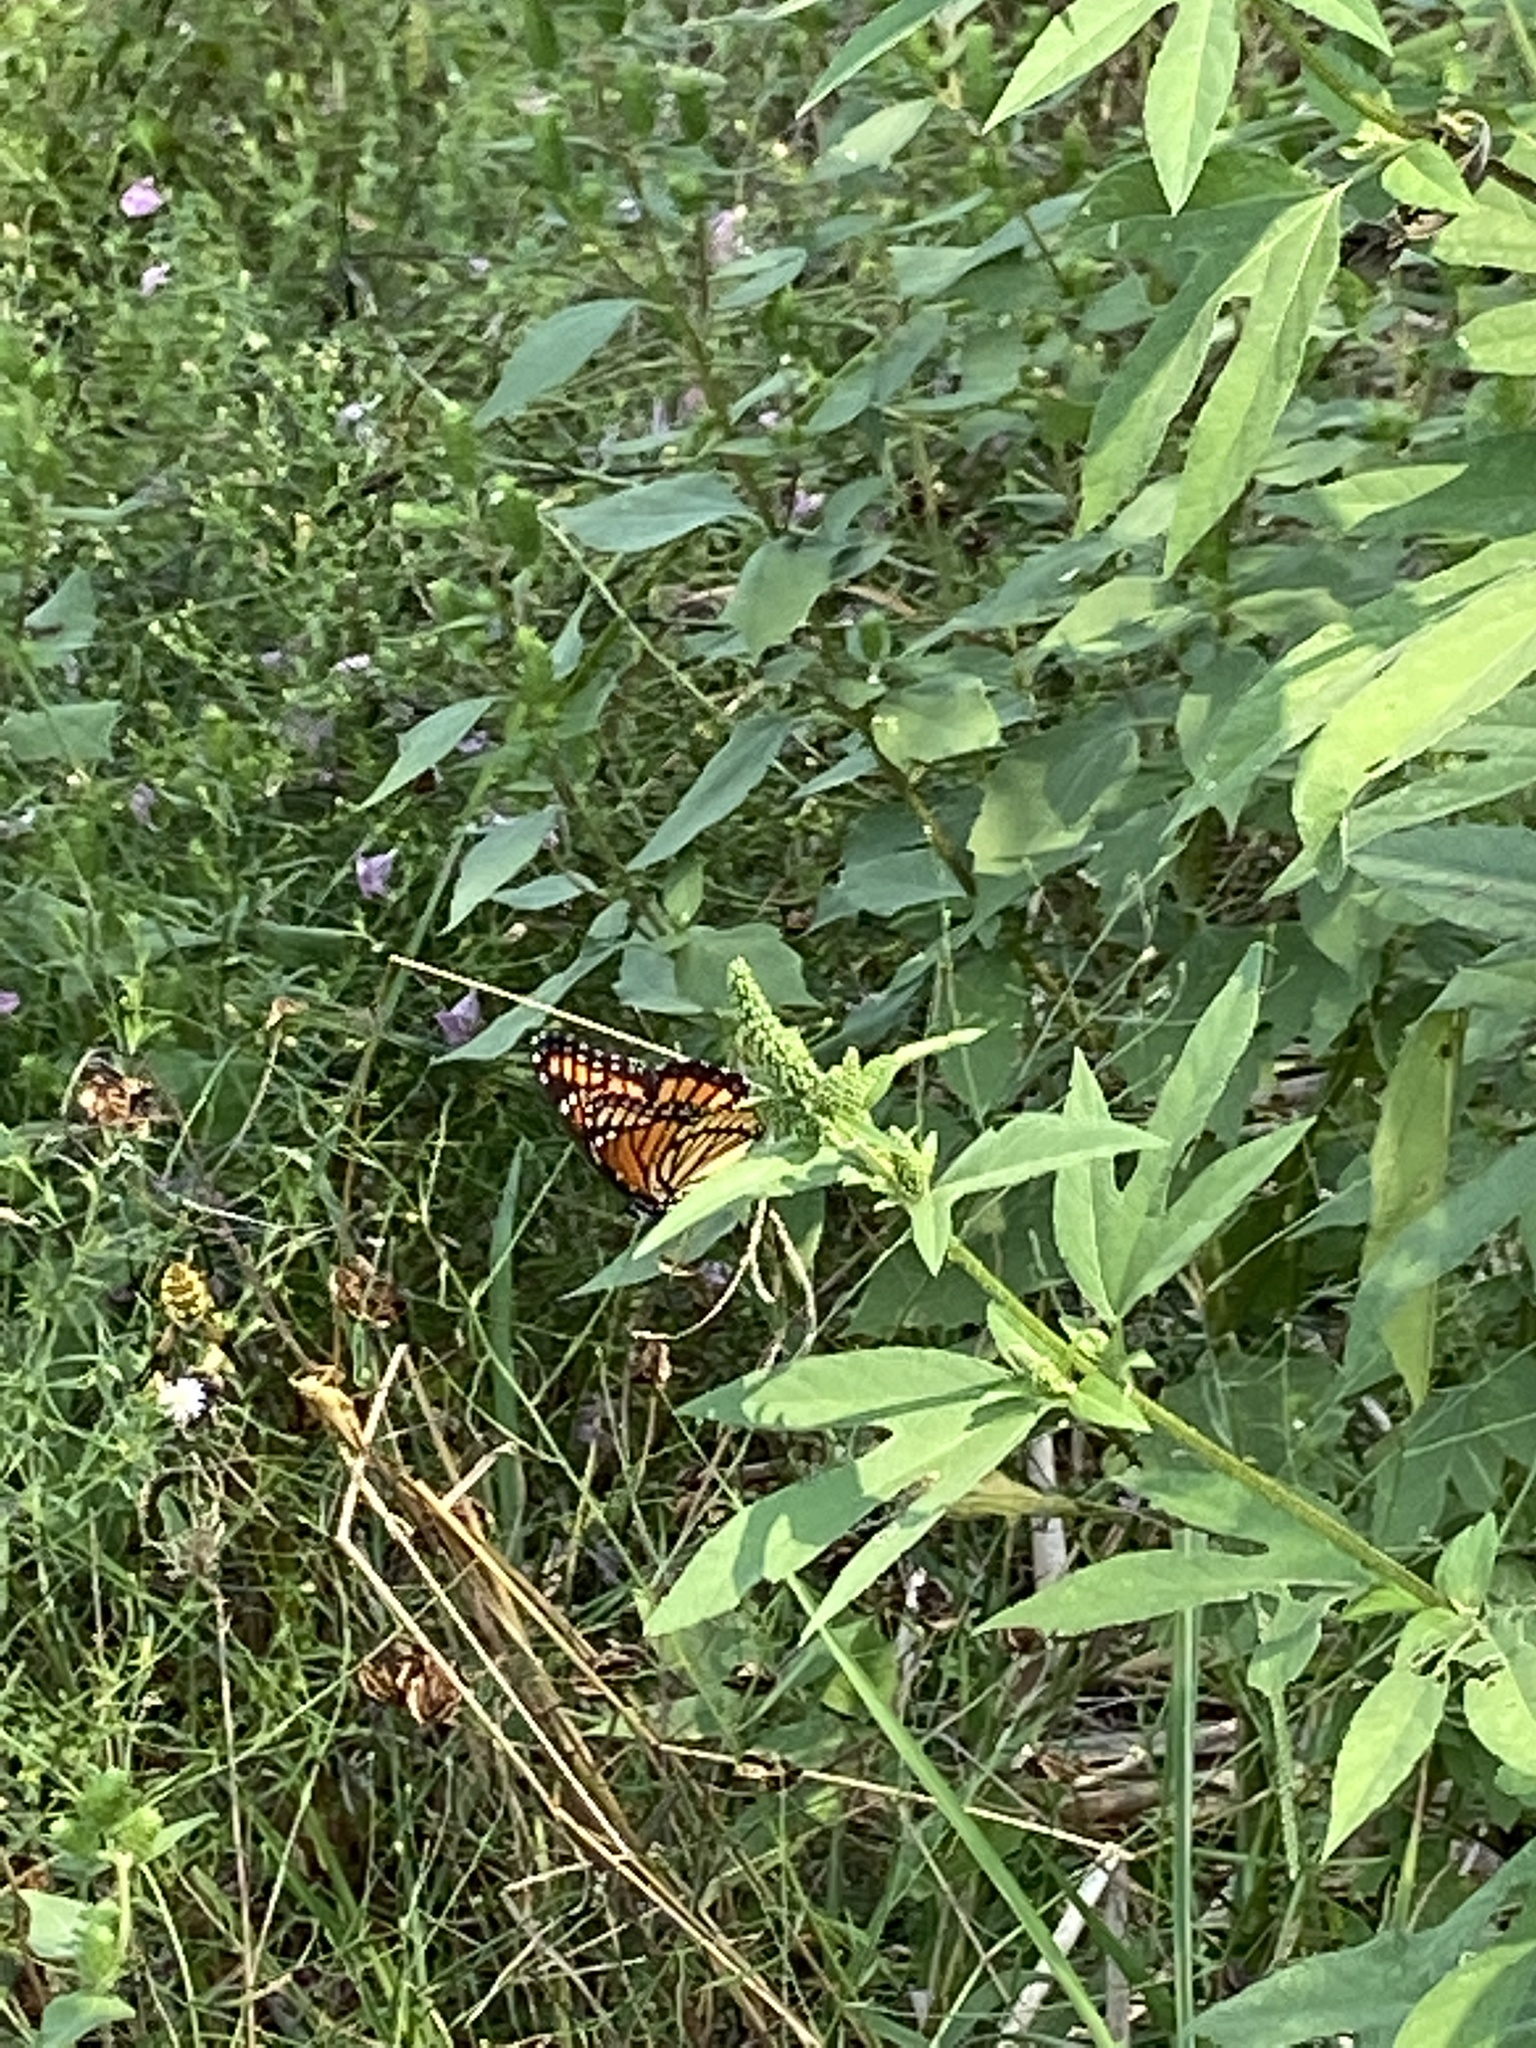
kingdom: Animalia
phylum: Arthropoda
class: Insecta
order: Lepidoptera
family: Nymphalidae
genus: Danaus
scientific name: Danaus plexippus
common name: Monarch
